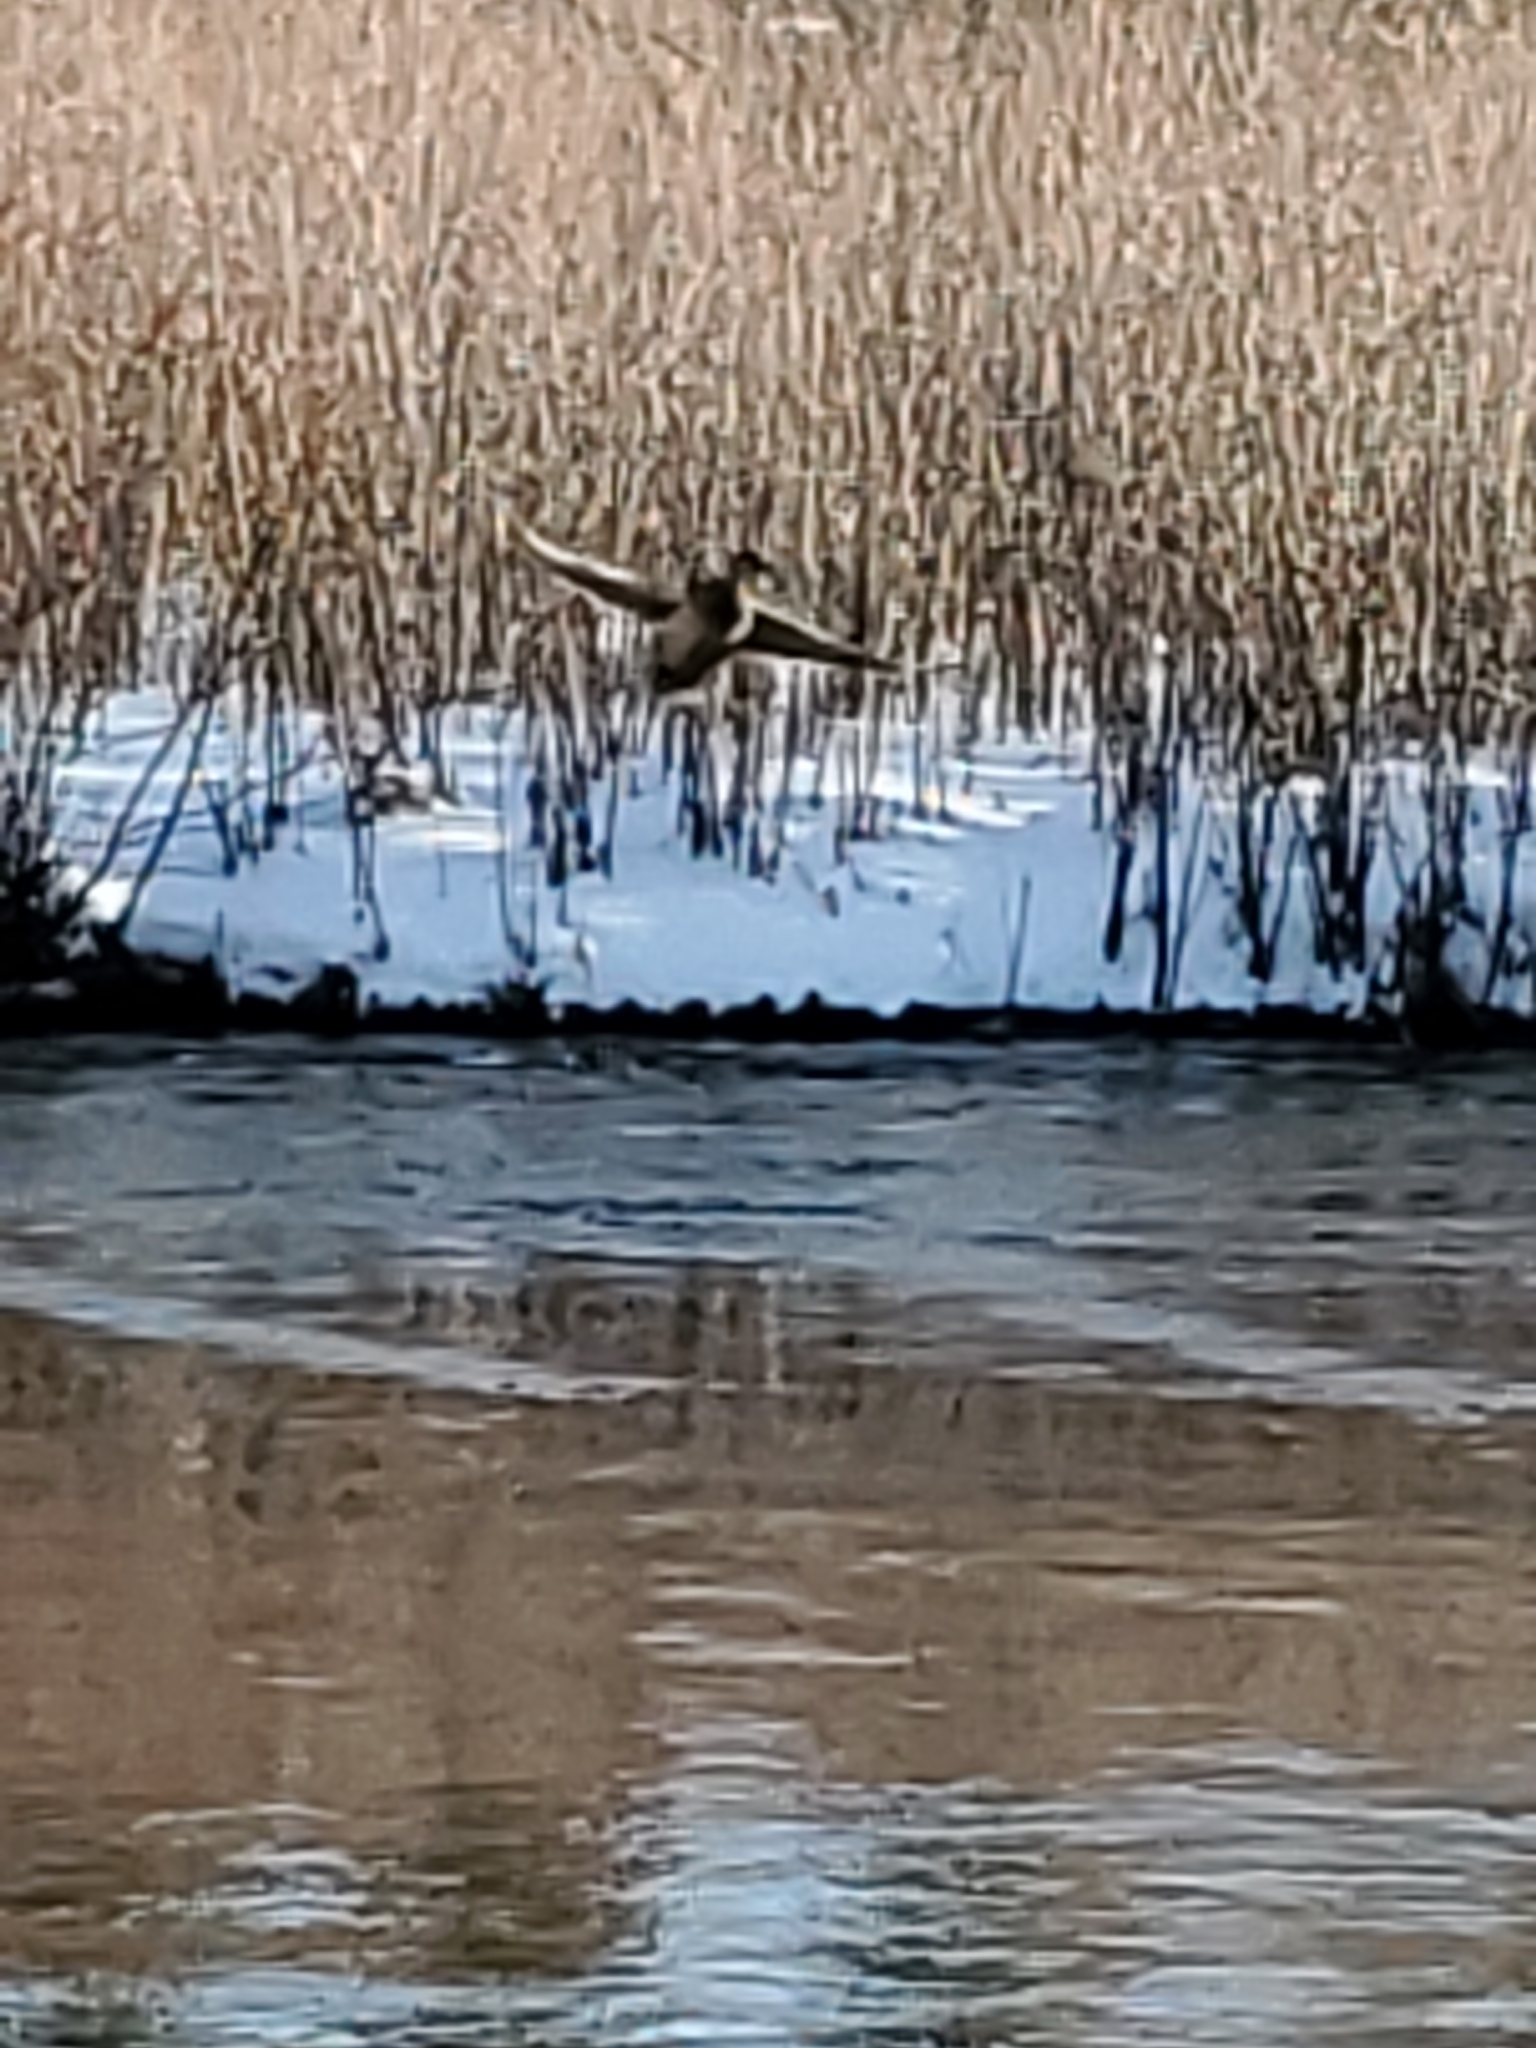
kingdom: Animalia
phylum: Chordata
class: Aves
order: Anseriformes
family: Anatidae
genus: Anas
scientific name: Anas platyrhynchos
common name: Mallard
